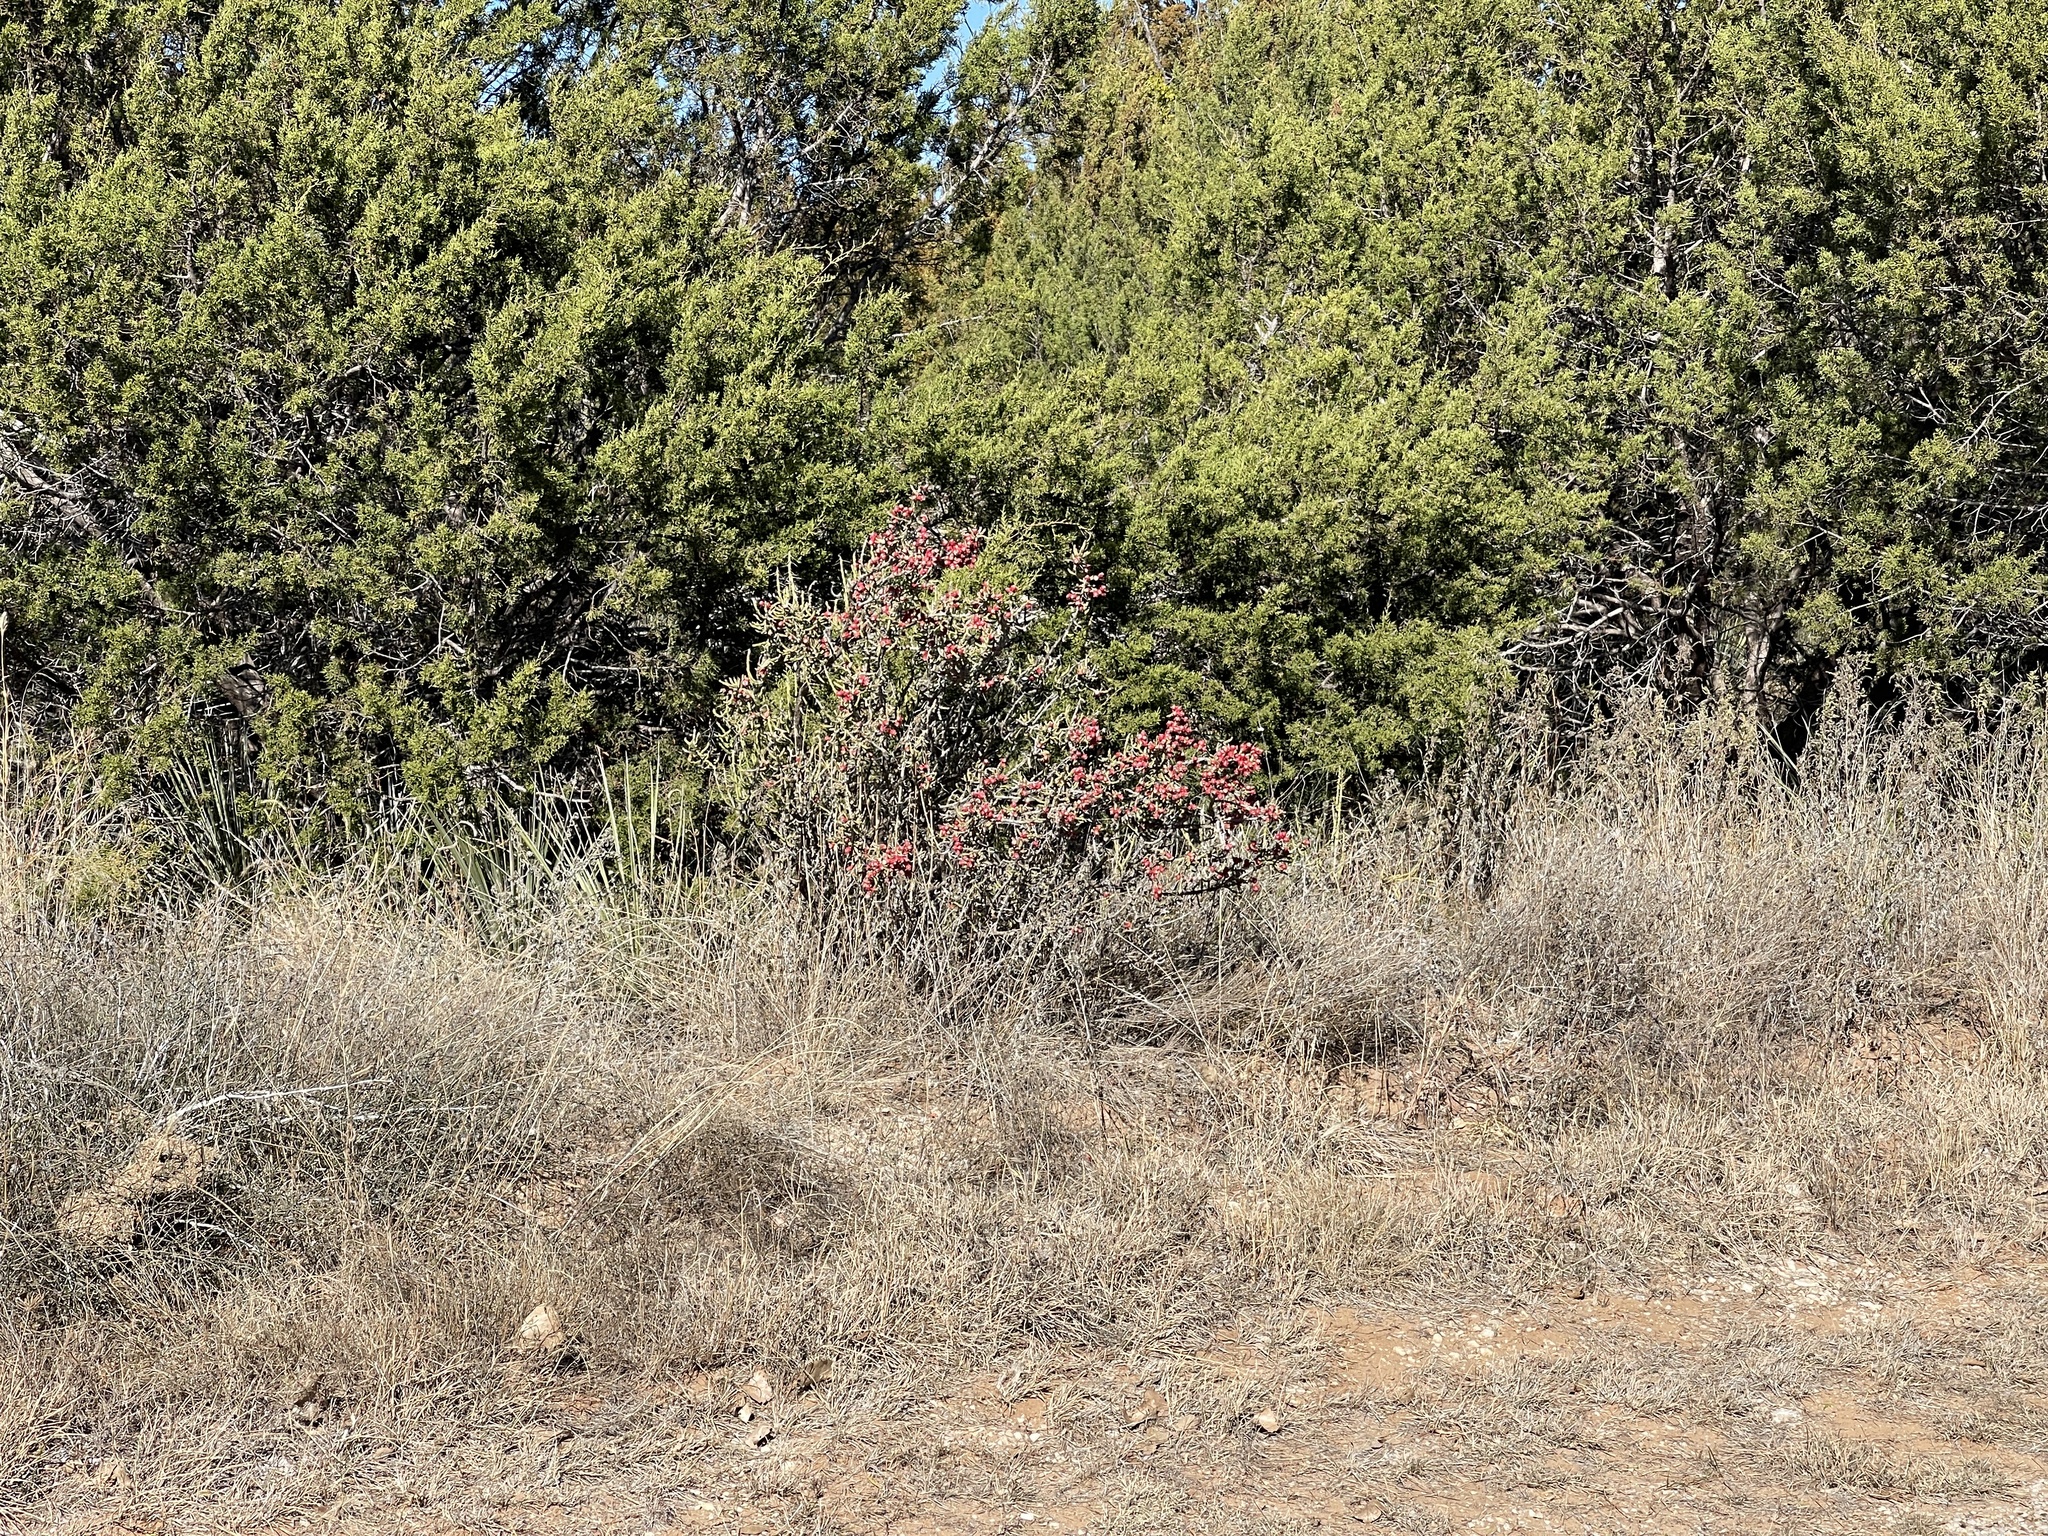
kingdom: Plantae
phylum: Tracheophyta
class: Magnoliopsida
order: Caryophyllales
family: Cactaceae
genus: Cylindropuntia
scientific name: Cylindropuntia leptocaulis
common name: Christmas cactus
